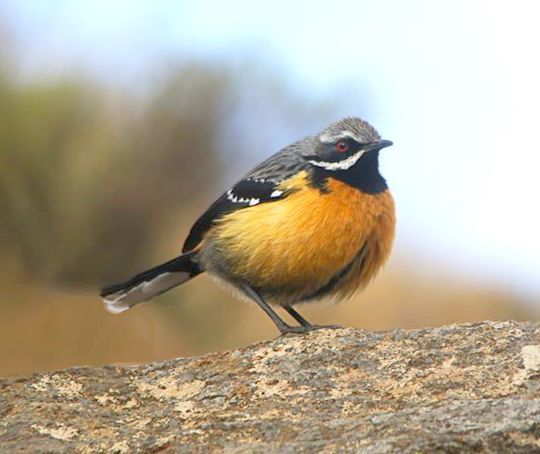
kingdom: Animalia
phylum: Chordata
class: Aves
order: Passeriformes
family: Chaetopidae
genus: Chaetops
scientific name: Chaetops aurantius
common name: Drakensberg rockjumper
